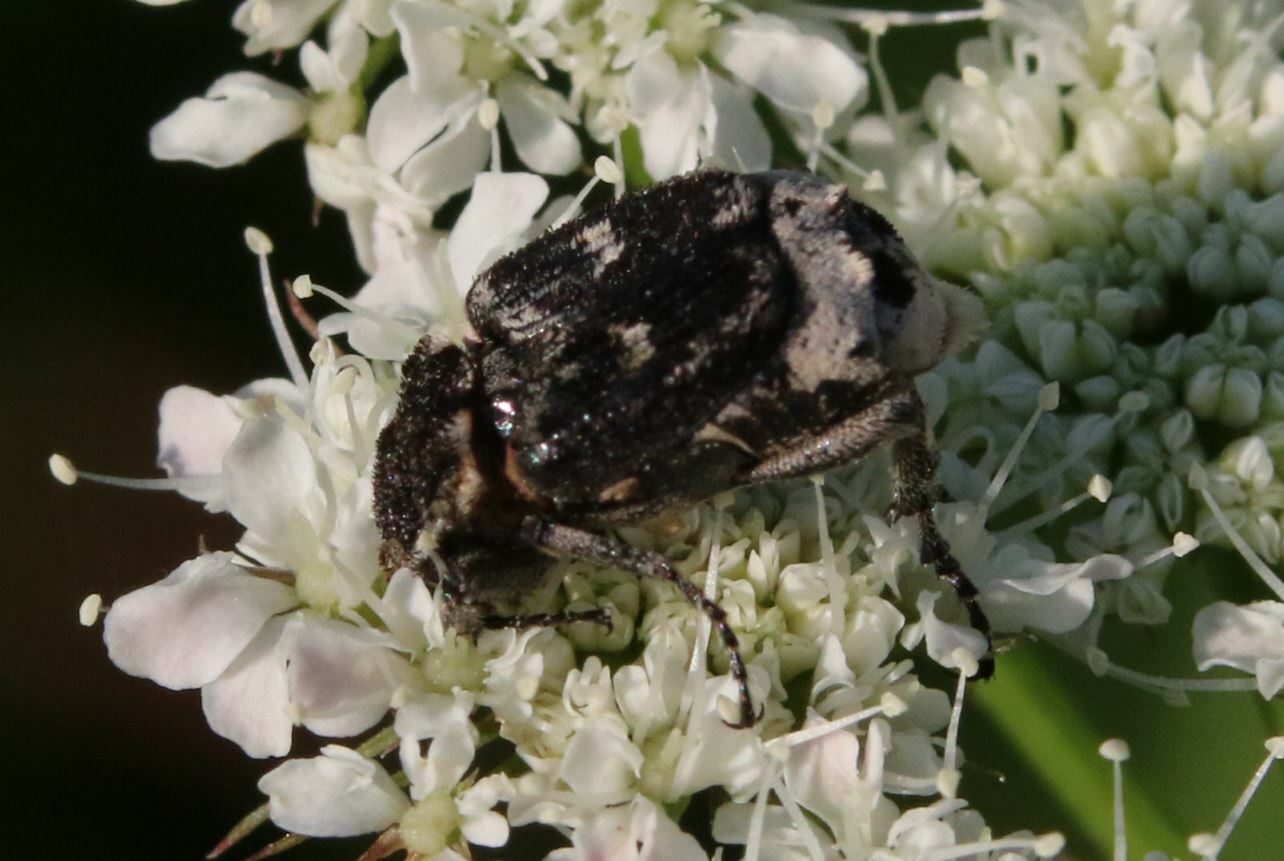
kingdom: Animalia
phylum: Arthropoda
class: Insecta
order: Coleoptera
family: Scarabaeidae
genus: Valgus
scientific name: Valgus hemipterus
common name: Bug flower chafer
